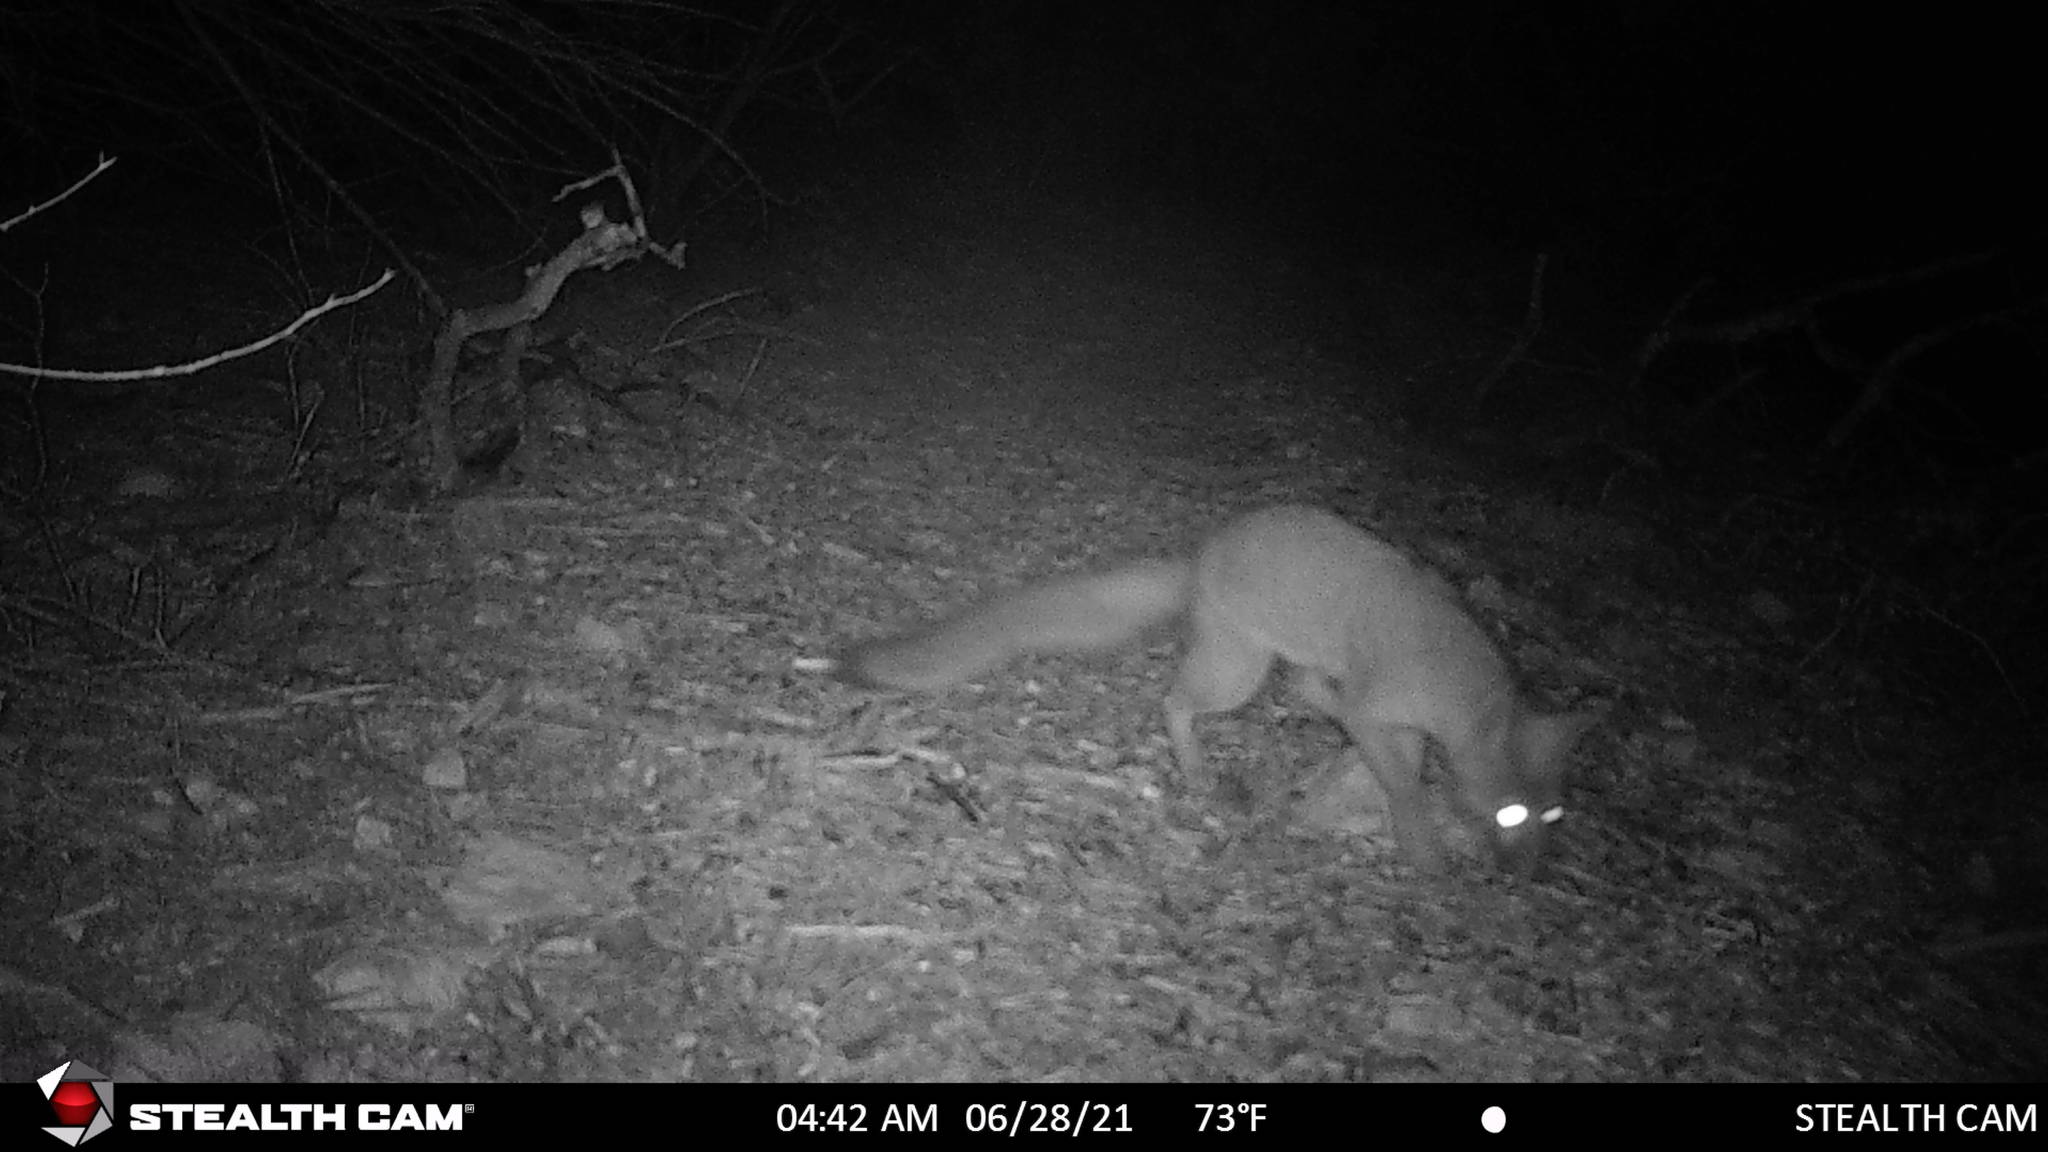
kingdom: Animalia
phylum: Chordata
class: Mammalia
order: Carnivora
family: Canidae
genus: Urocyon
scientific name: Urocyon cinereoargenteus
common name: Gray fox
